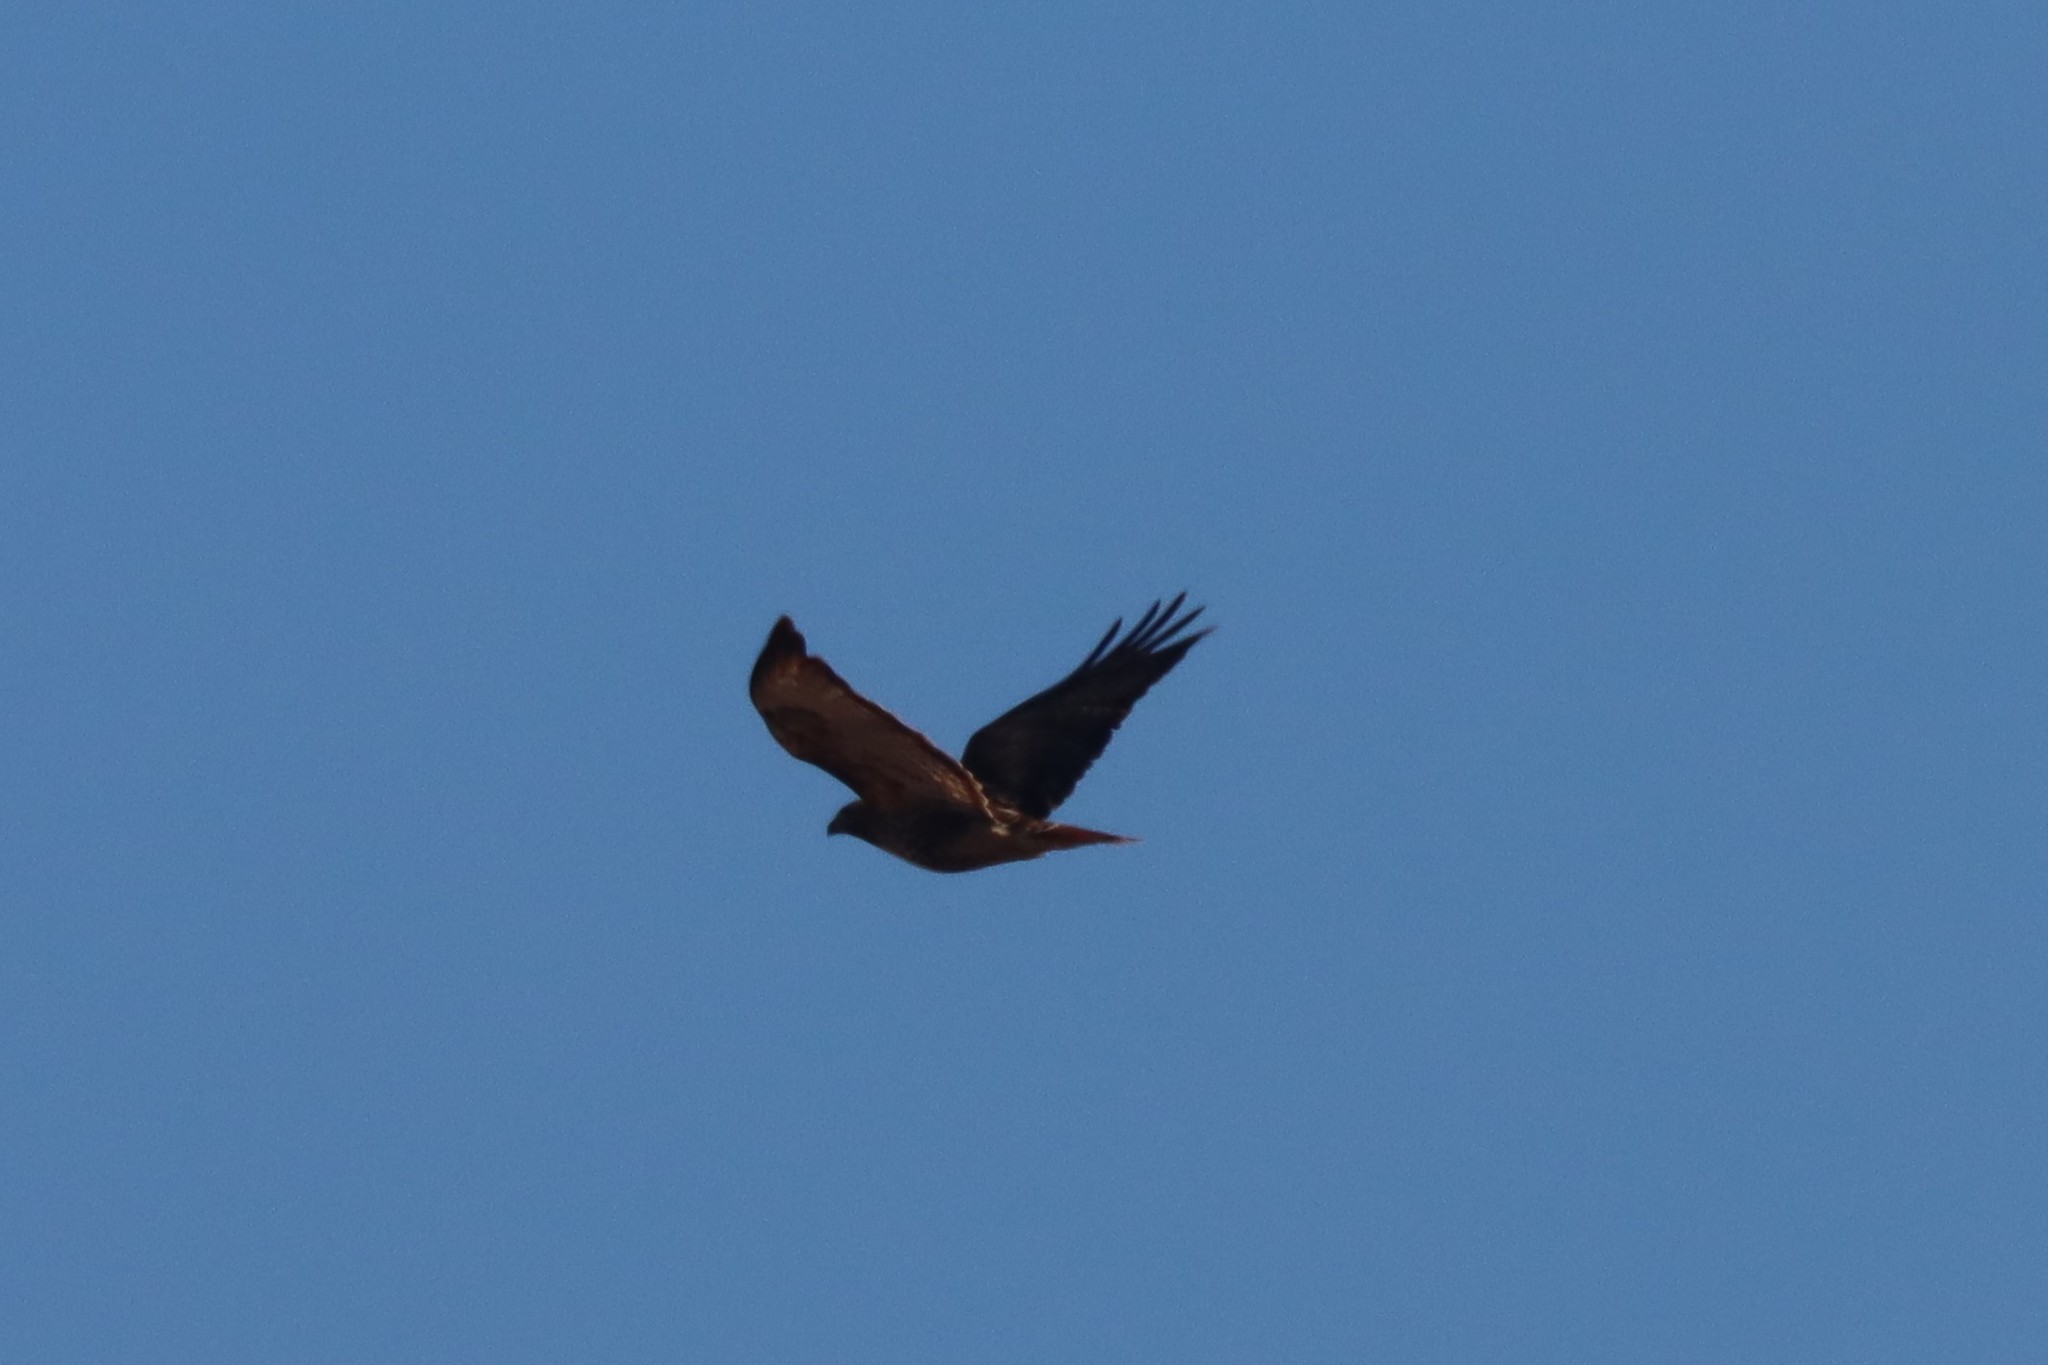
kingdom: Animalia
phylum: Chordata
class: Aves
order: Accipitriformes
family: Accipitridae
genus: Buteo
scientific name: Buteo jamaicensis
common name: Red-tailed hawk
